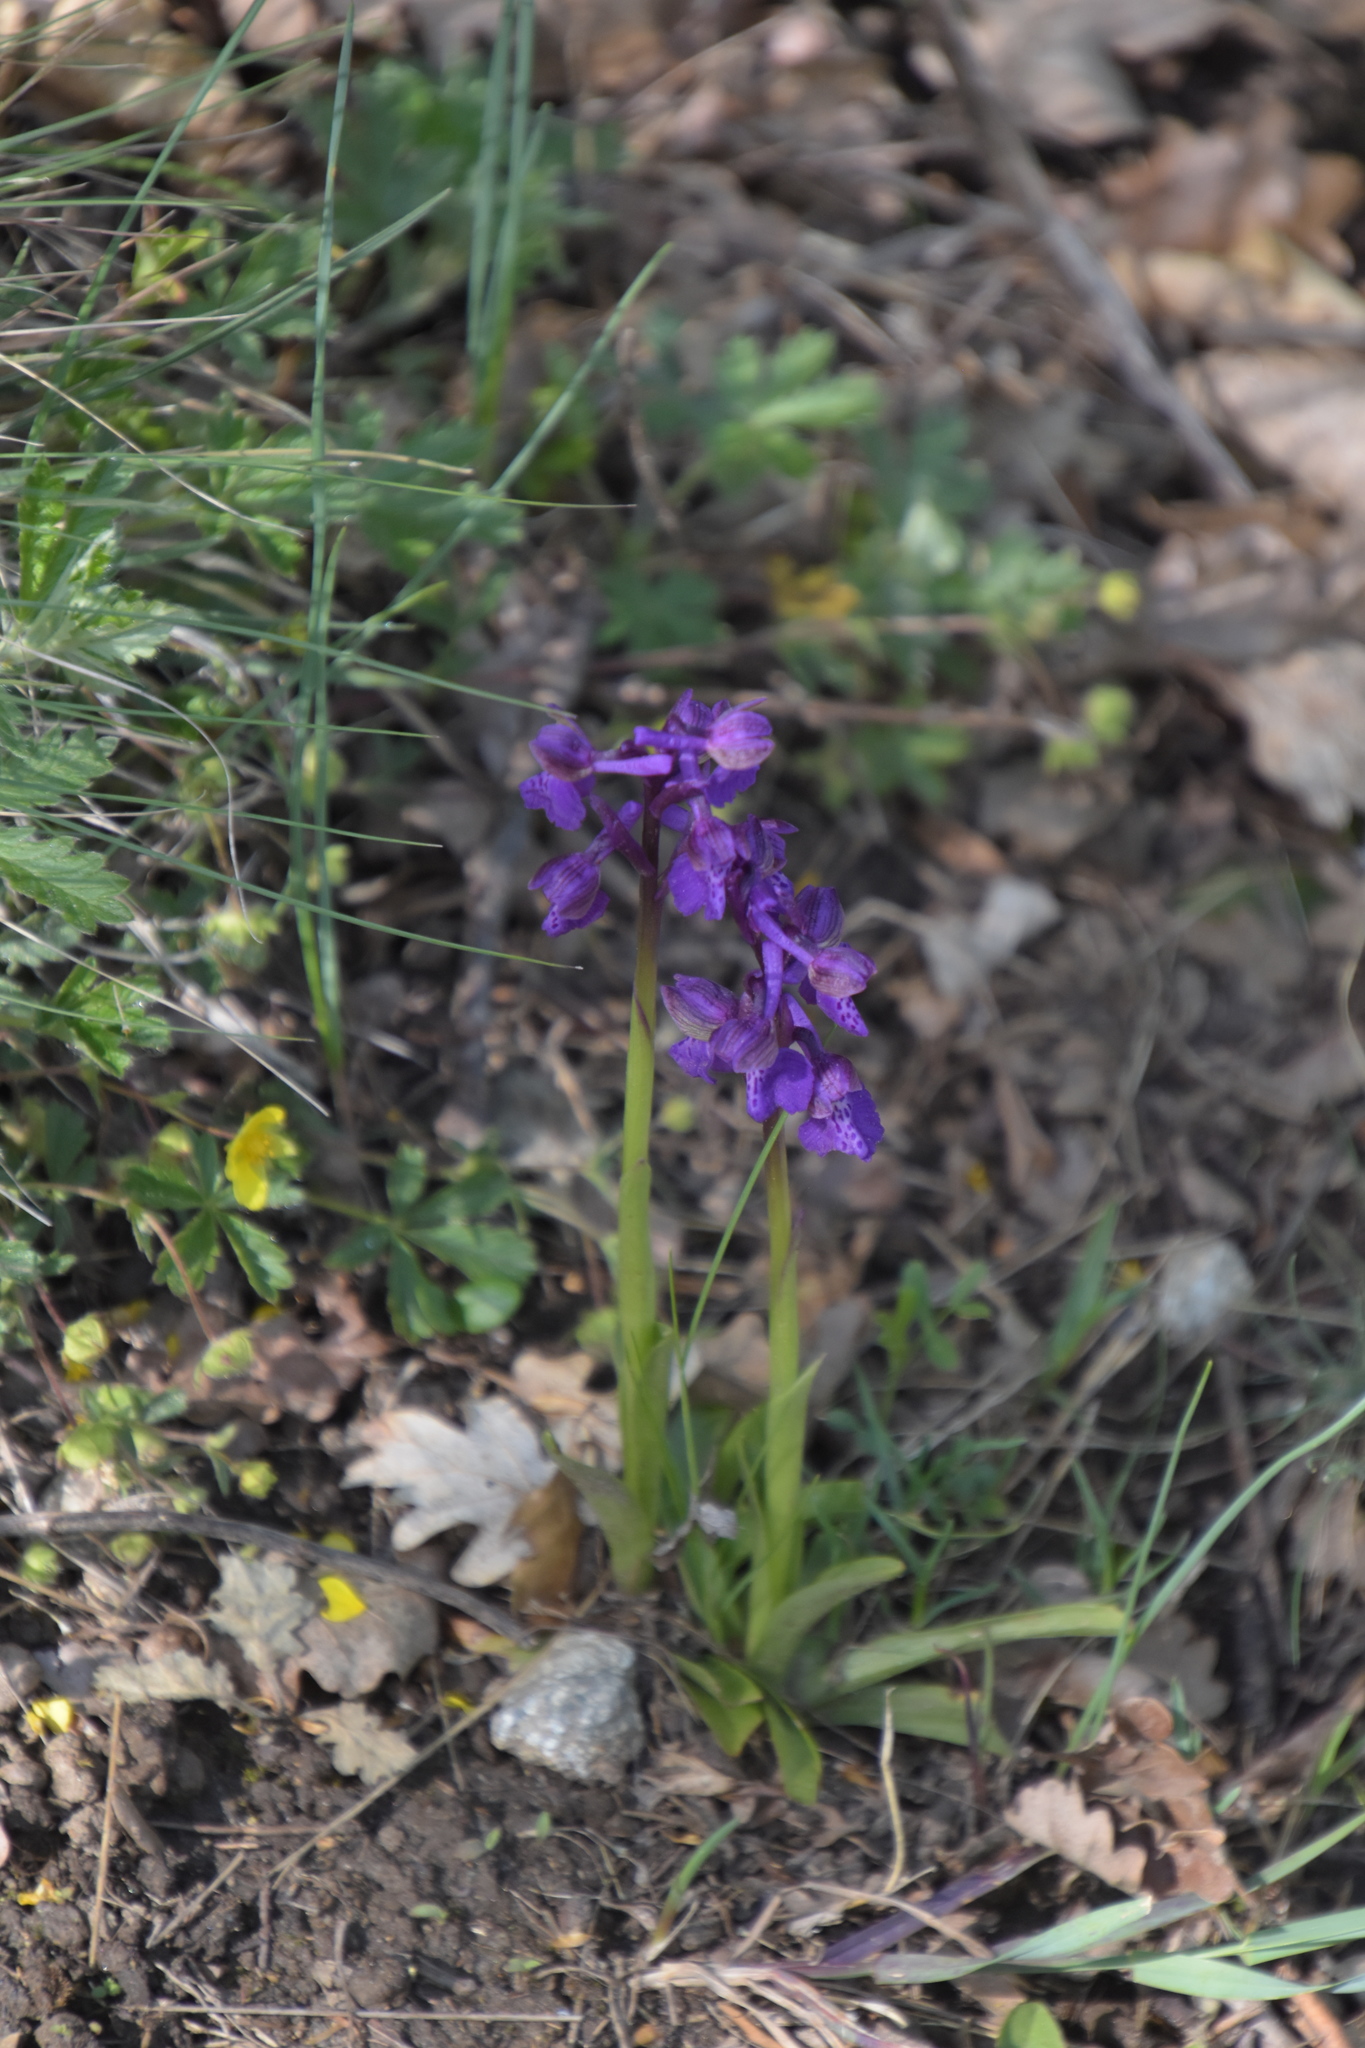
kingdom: Plantae
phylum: Tracheophyta
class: Liliopsida
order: Asparagales
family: Orchidaceae
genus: Anacamptis
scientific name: Anacamptis morio
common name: Green-winged orchid
